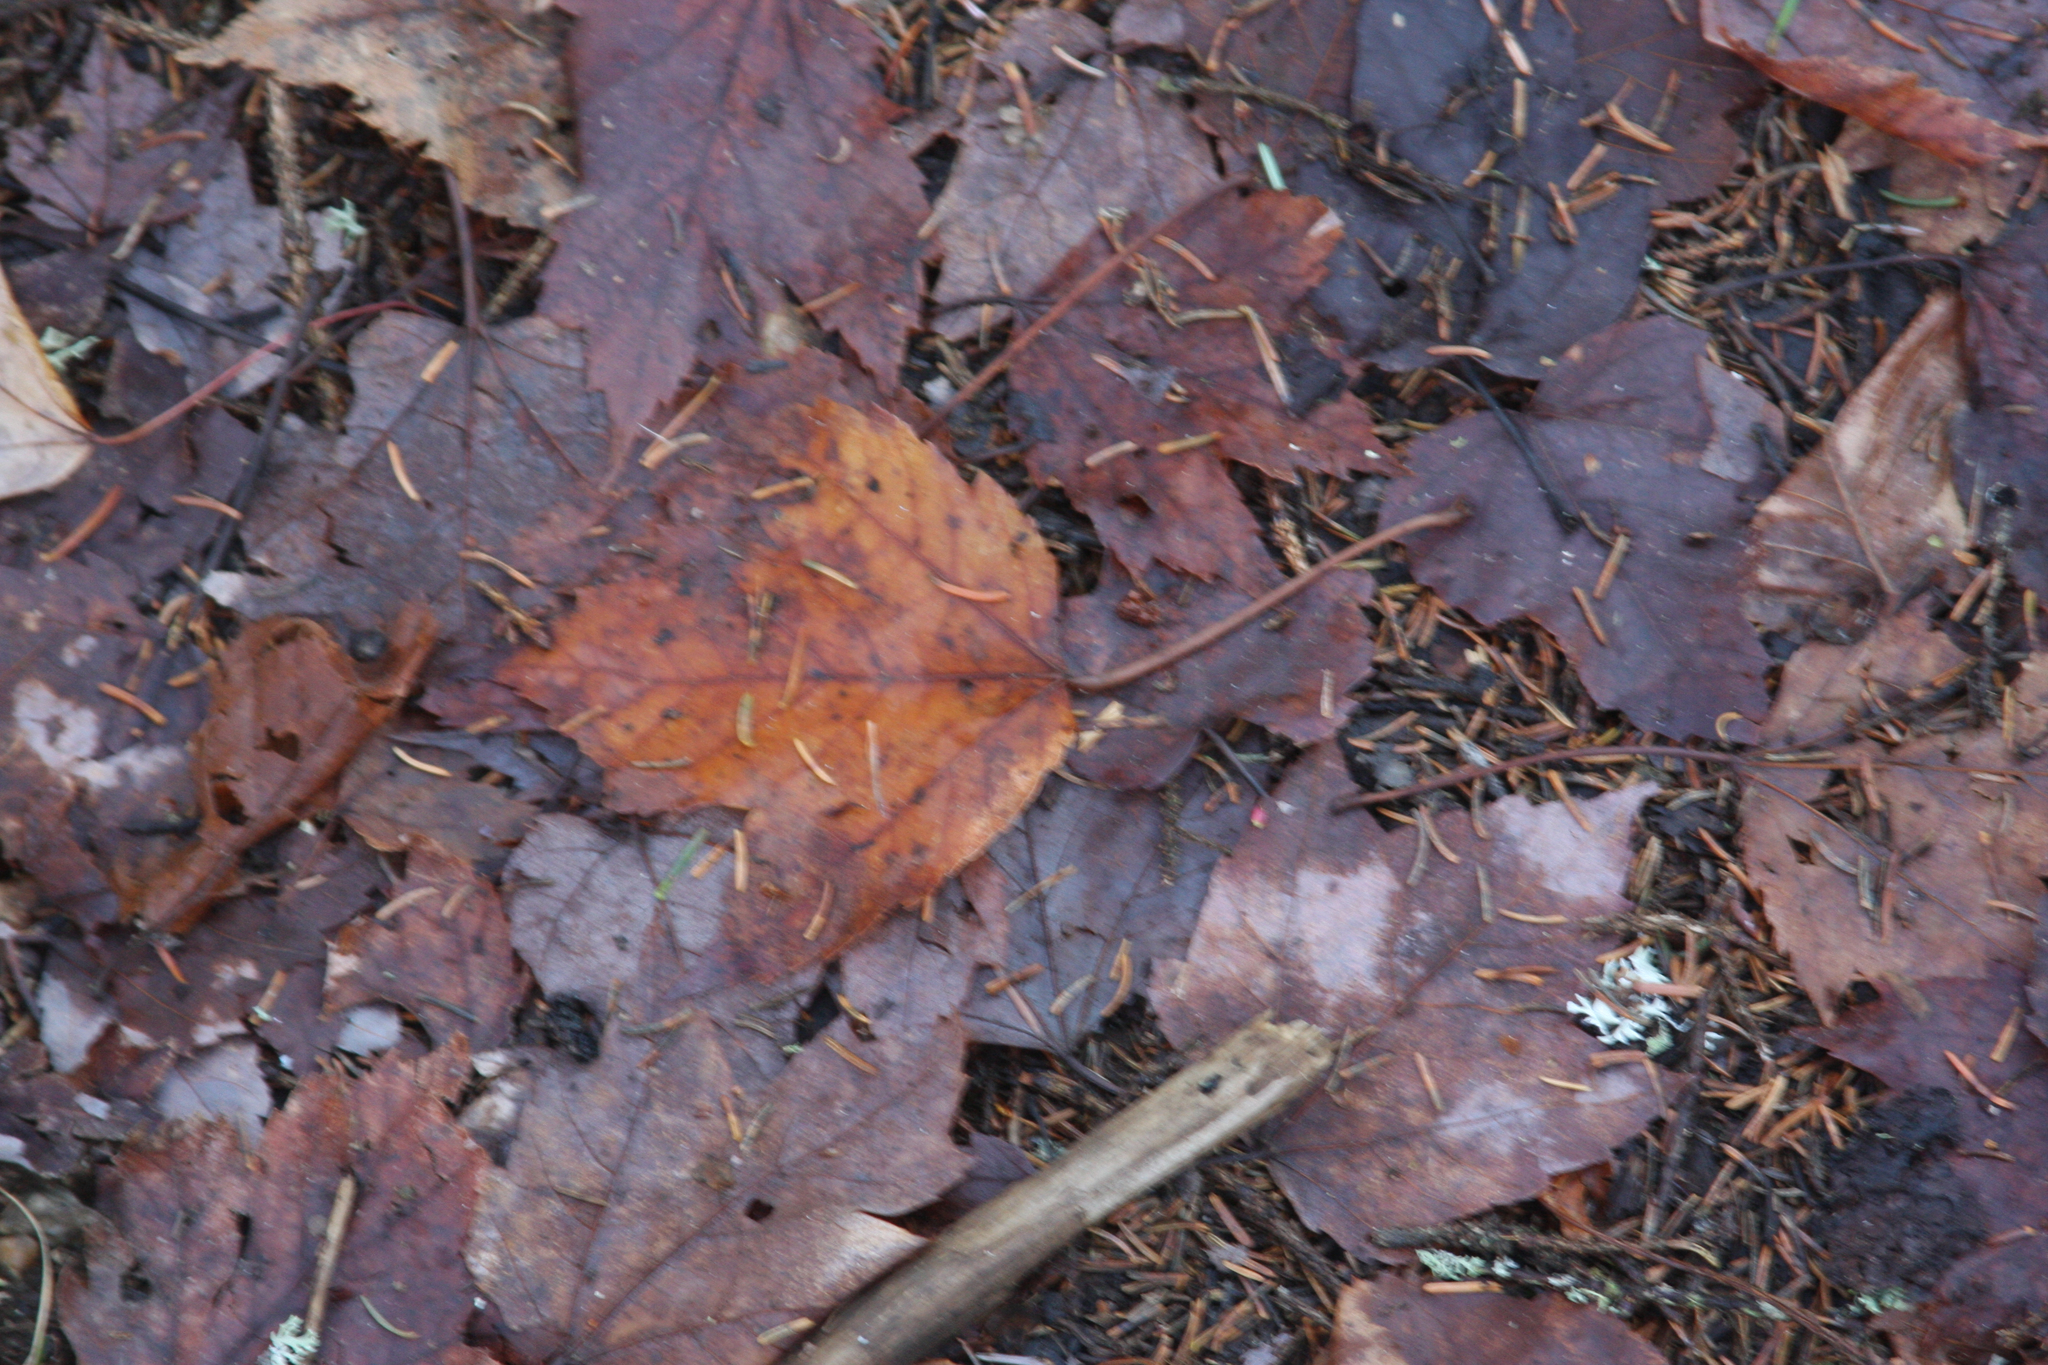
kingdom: Plantae
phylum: Tracheophyta
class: Magnoliopsida
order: Sapindales
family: Sapindaceae
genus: Acer
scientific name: Acer rubrum
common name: Red maple
